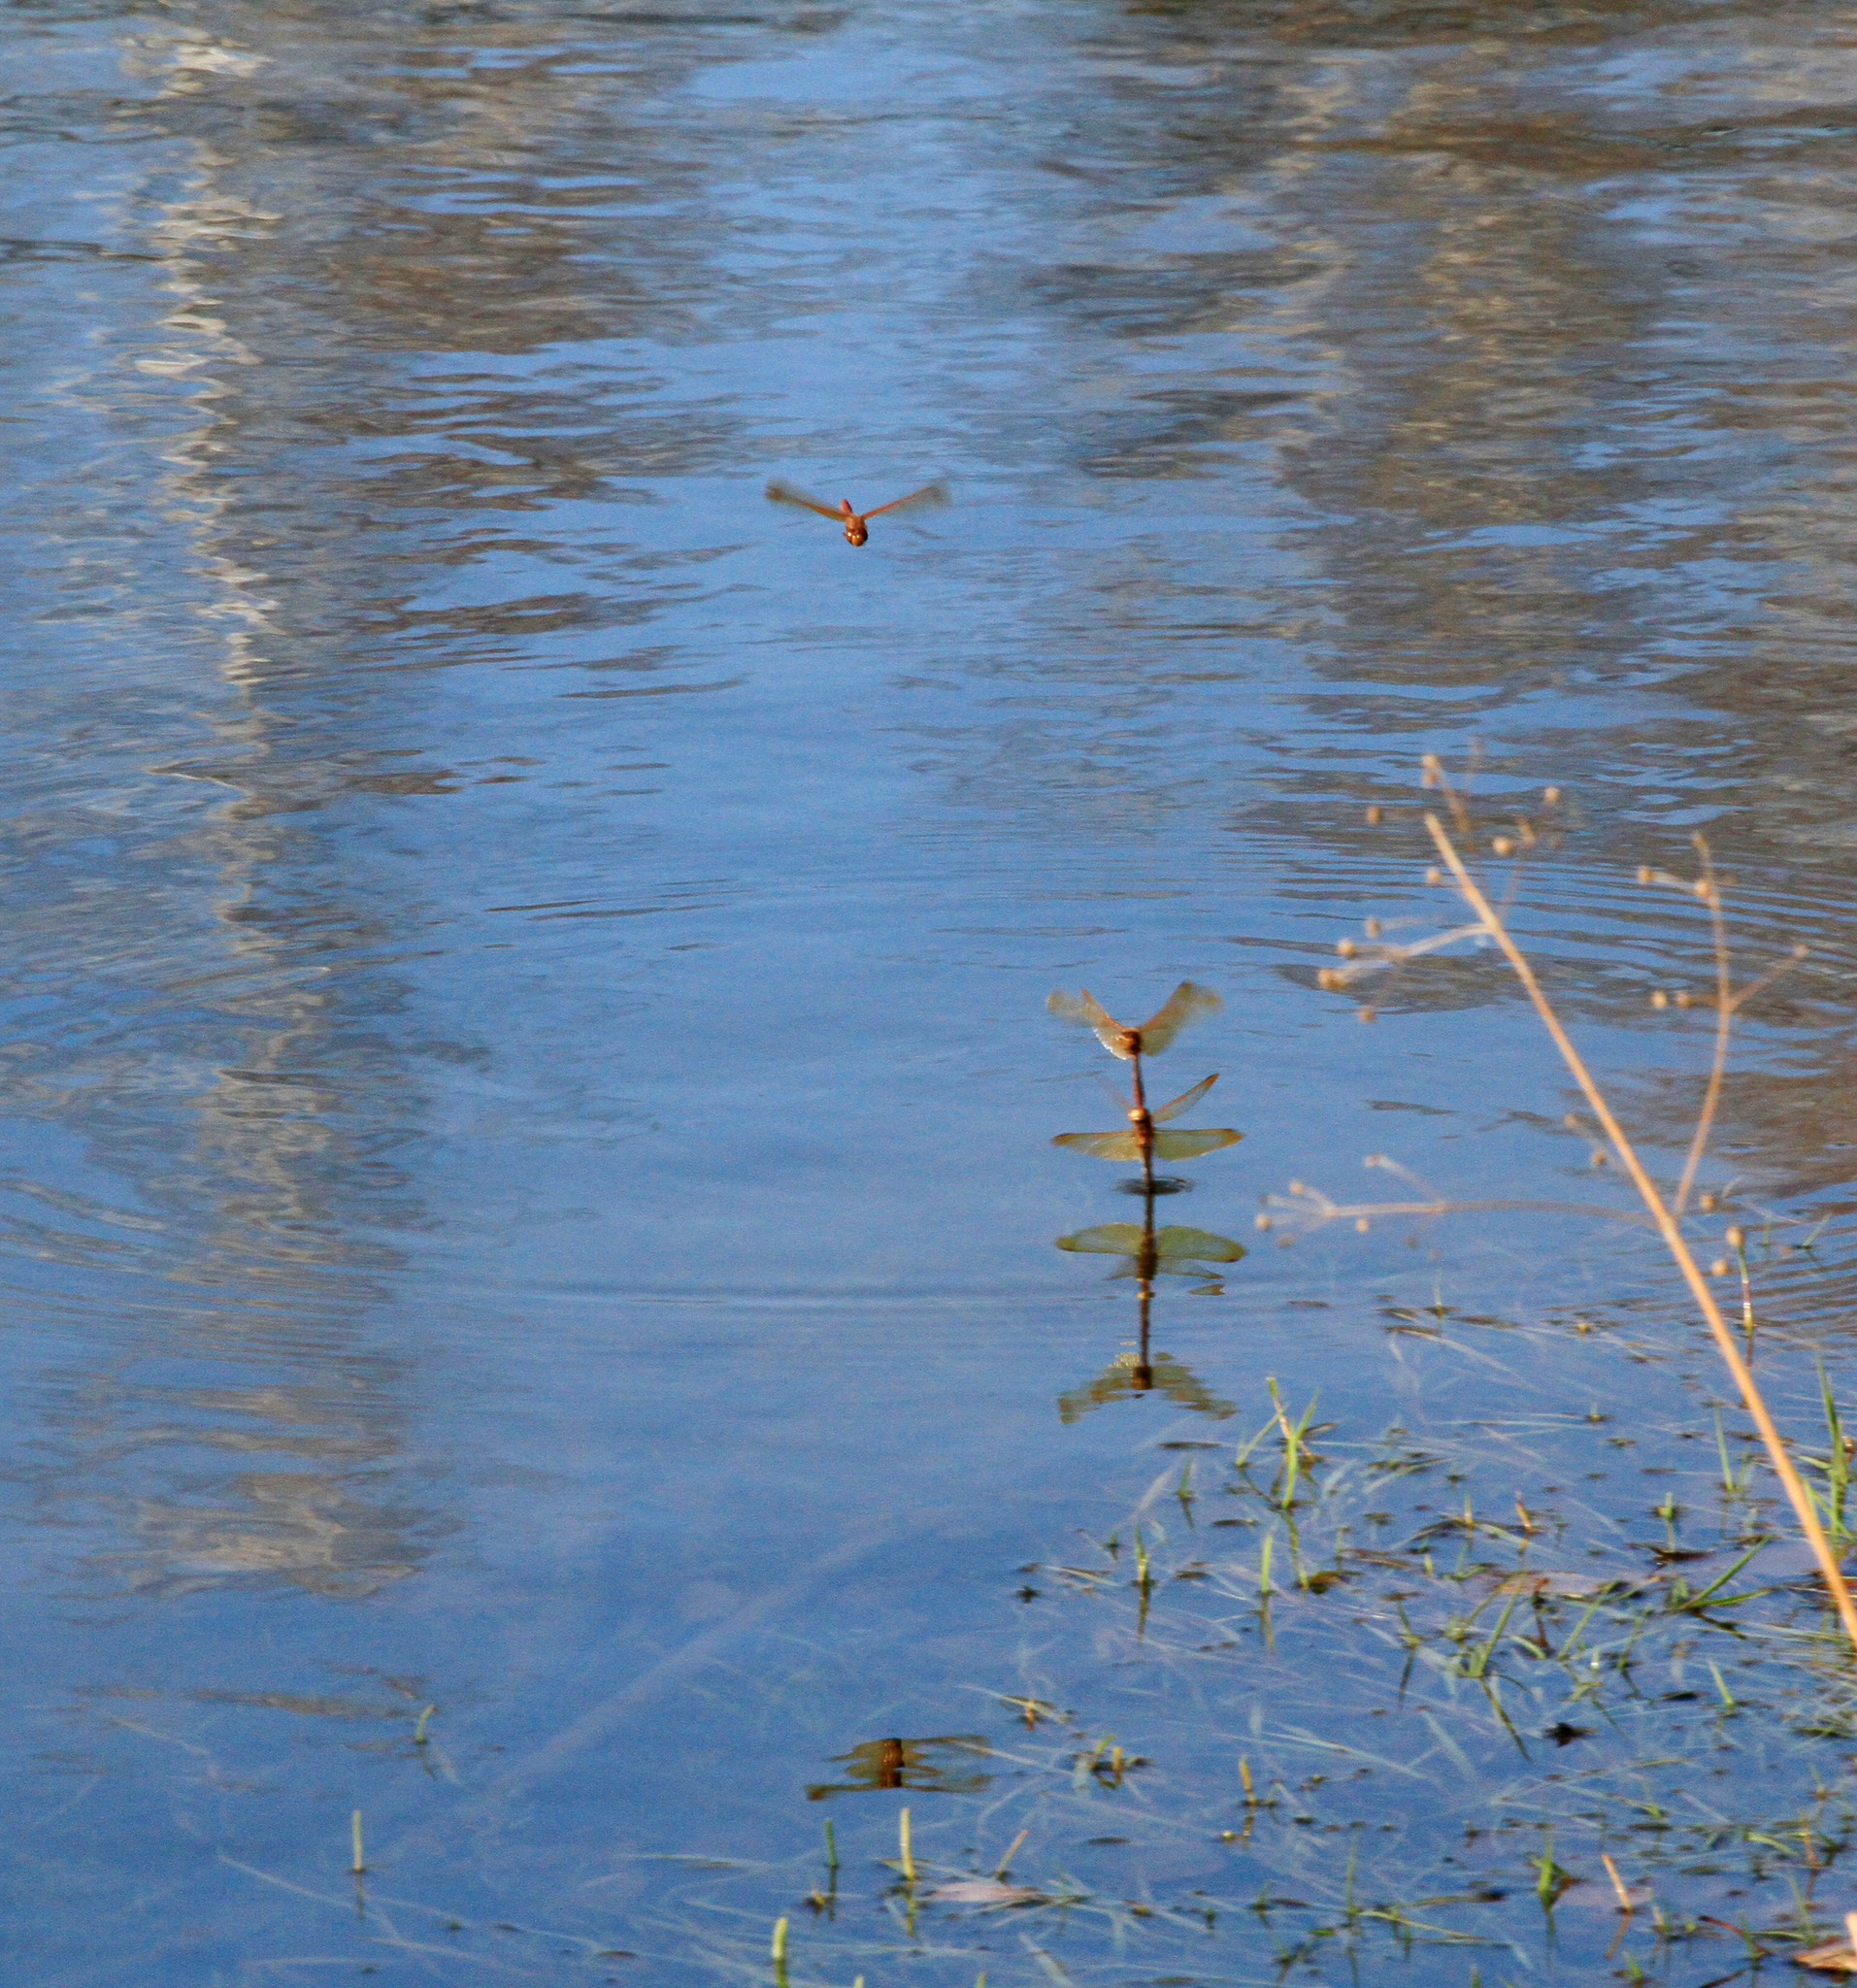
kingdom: Animalia
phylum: Arthropoda
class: Insecta
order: Odonata
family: Libellulidae
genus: Sympetrum
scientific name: Sympetrum croceolum
